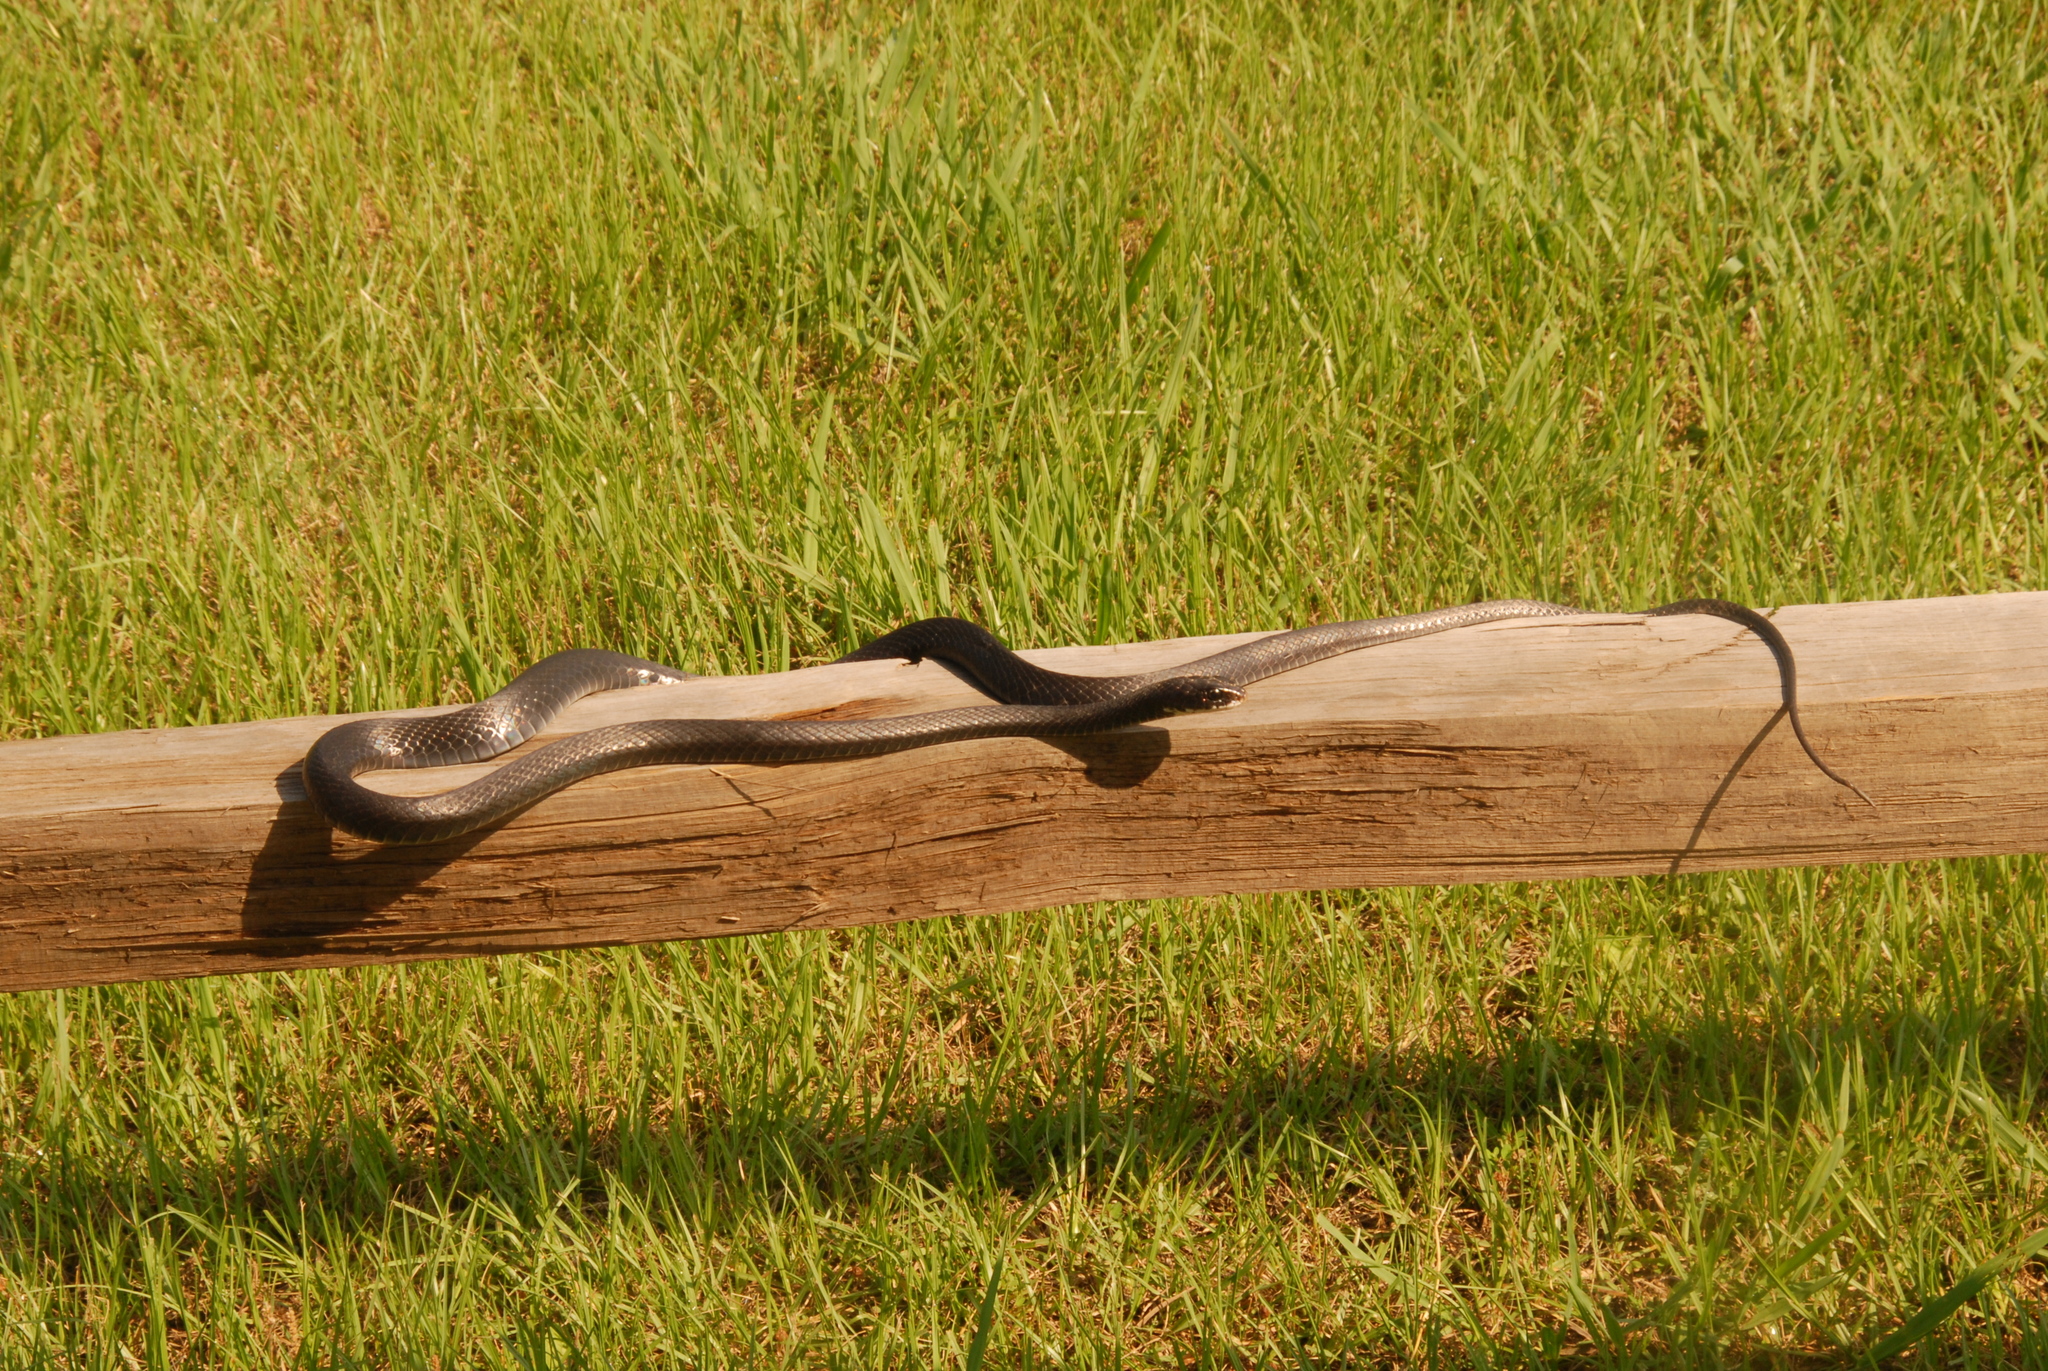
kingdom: Animalia
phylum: Chordata
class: Squamata
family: Colubridae
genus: Coluber
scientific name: Coluber constrictor
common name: Eastern racer
